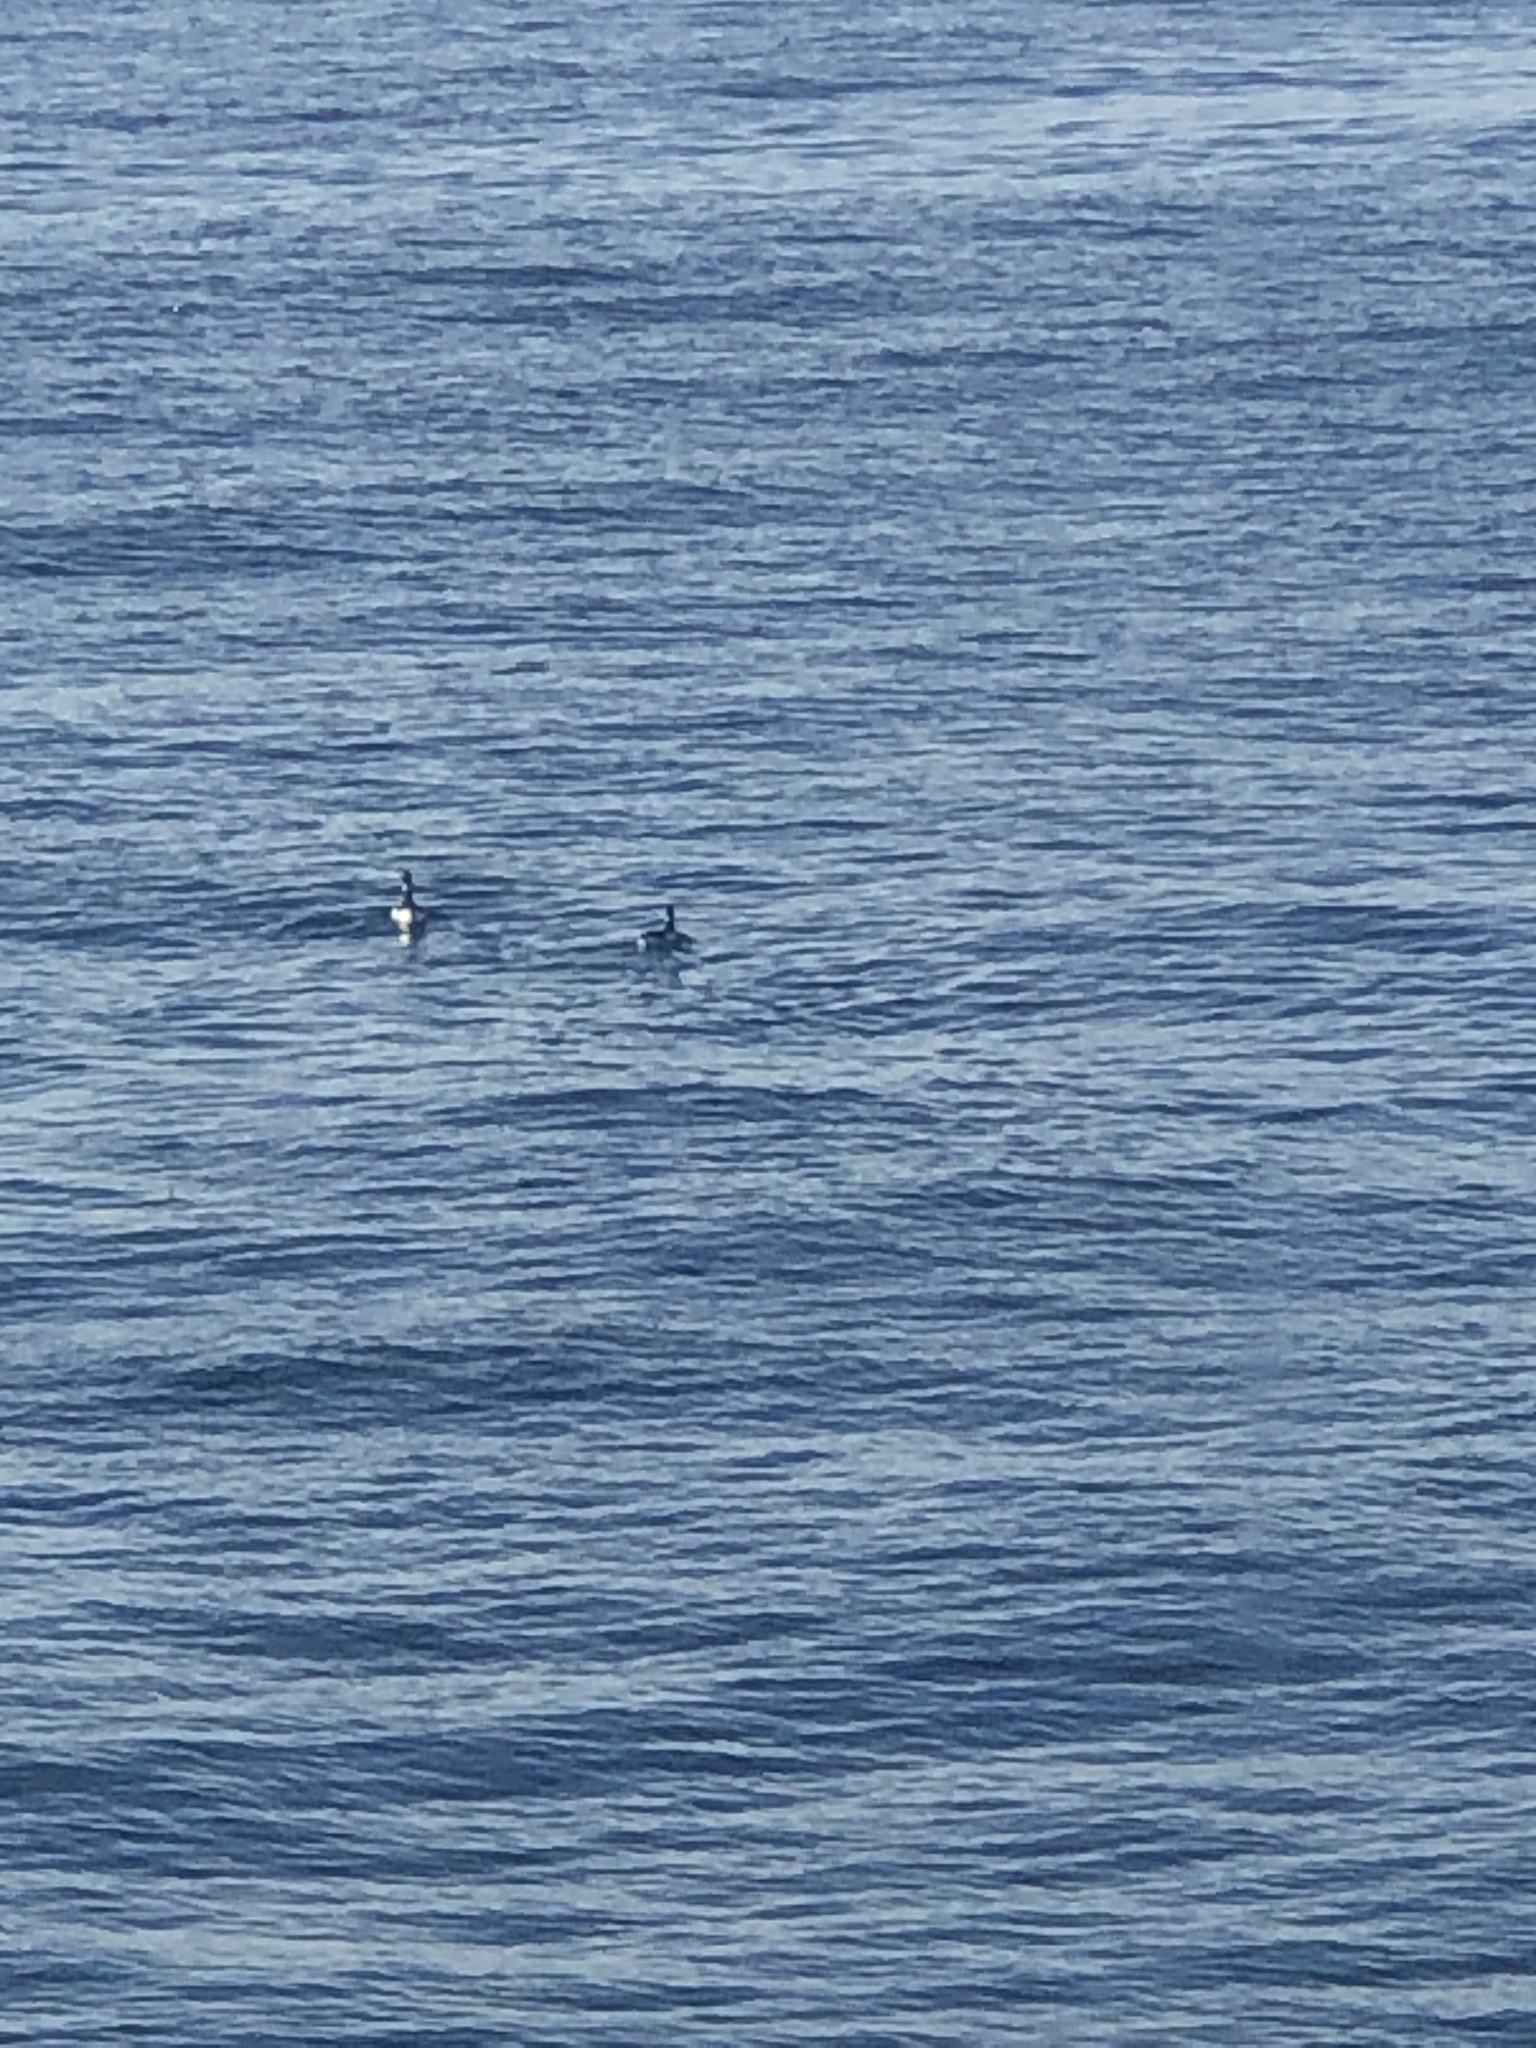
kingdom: Animalia
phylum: Chordata
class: Aves
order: Anseriformes
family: Anatidae
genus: Branta
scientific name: Branta bernicla
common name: Brant goose
